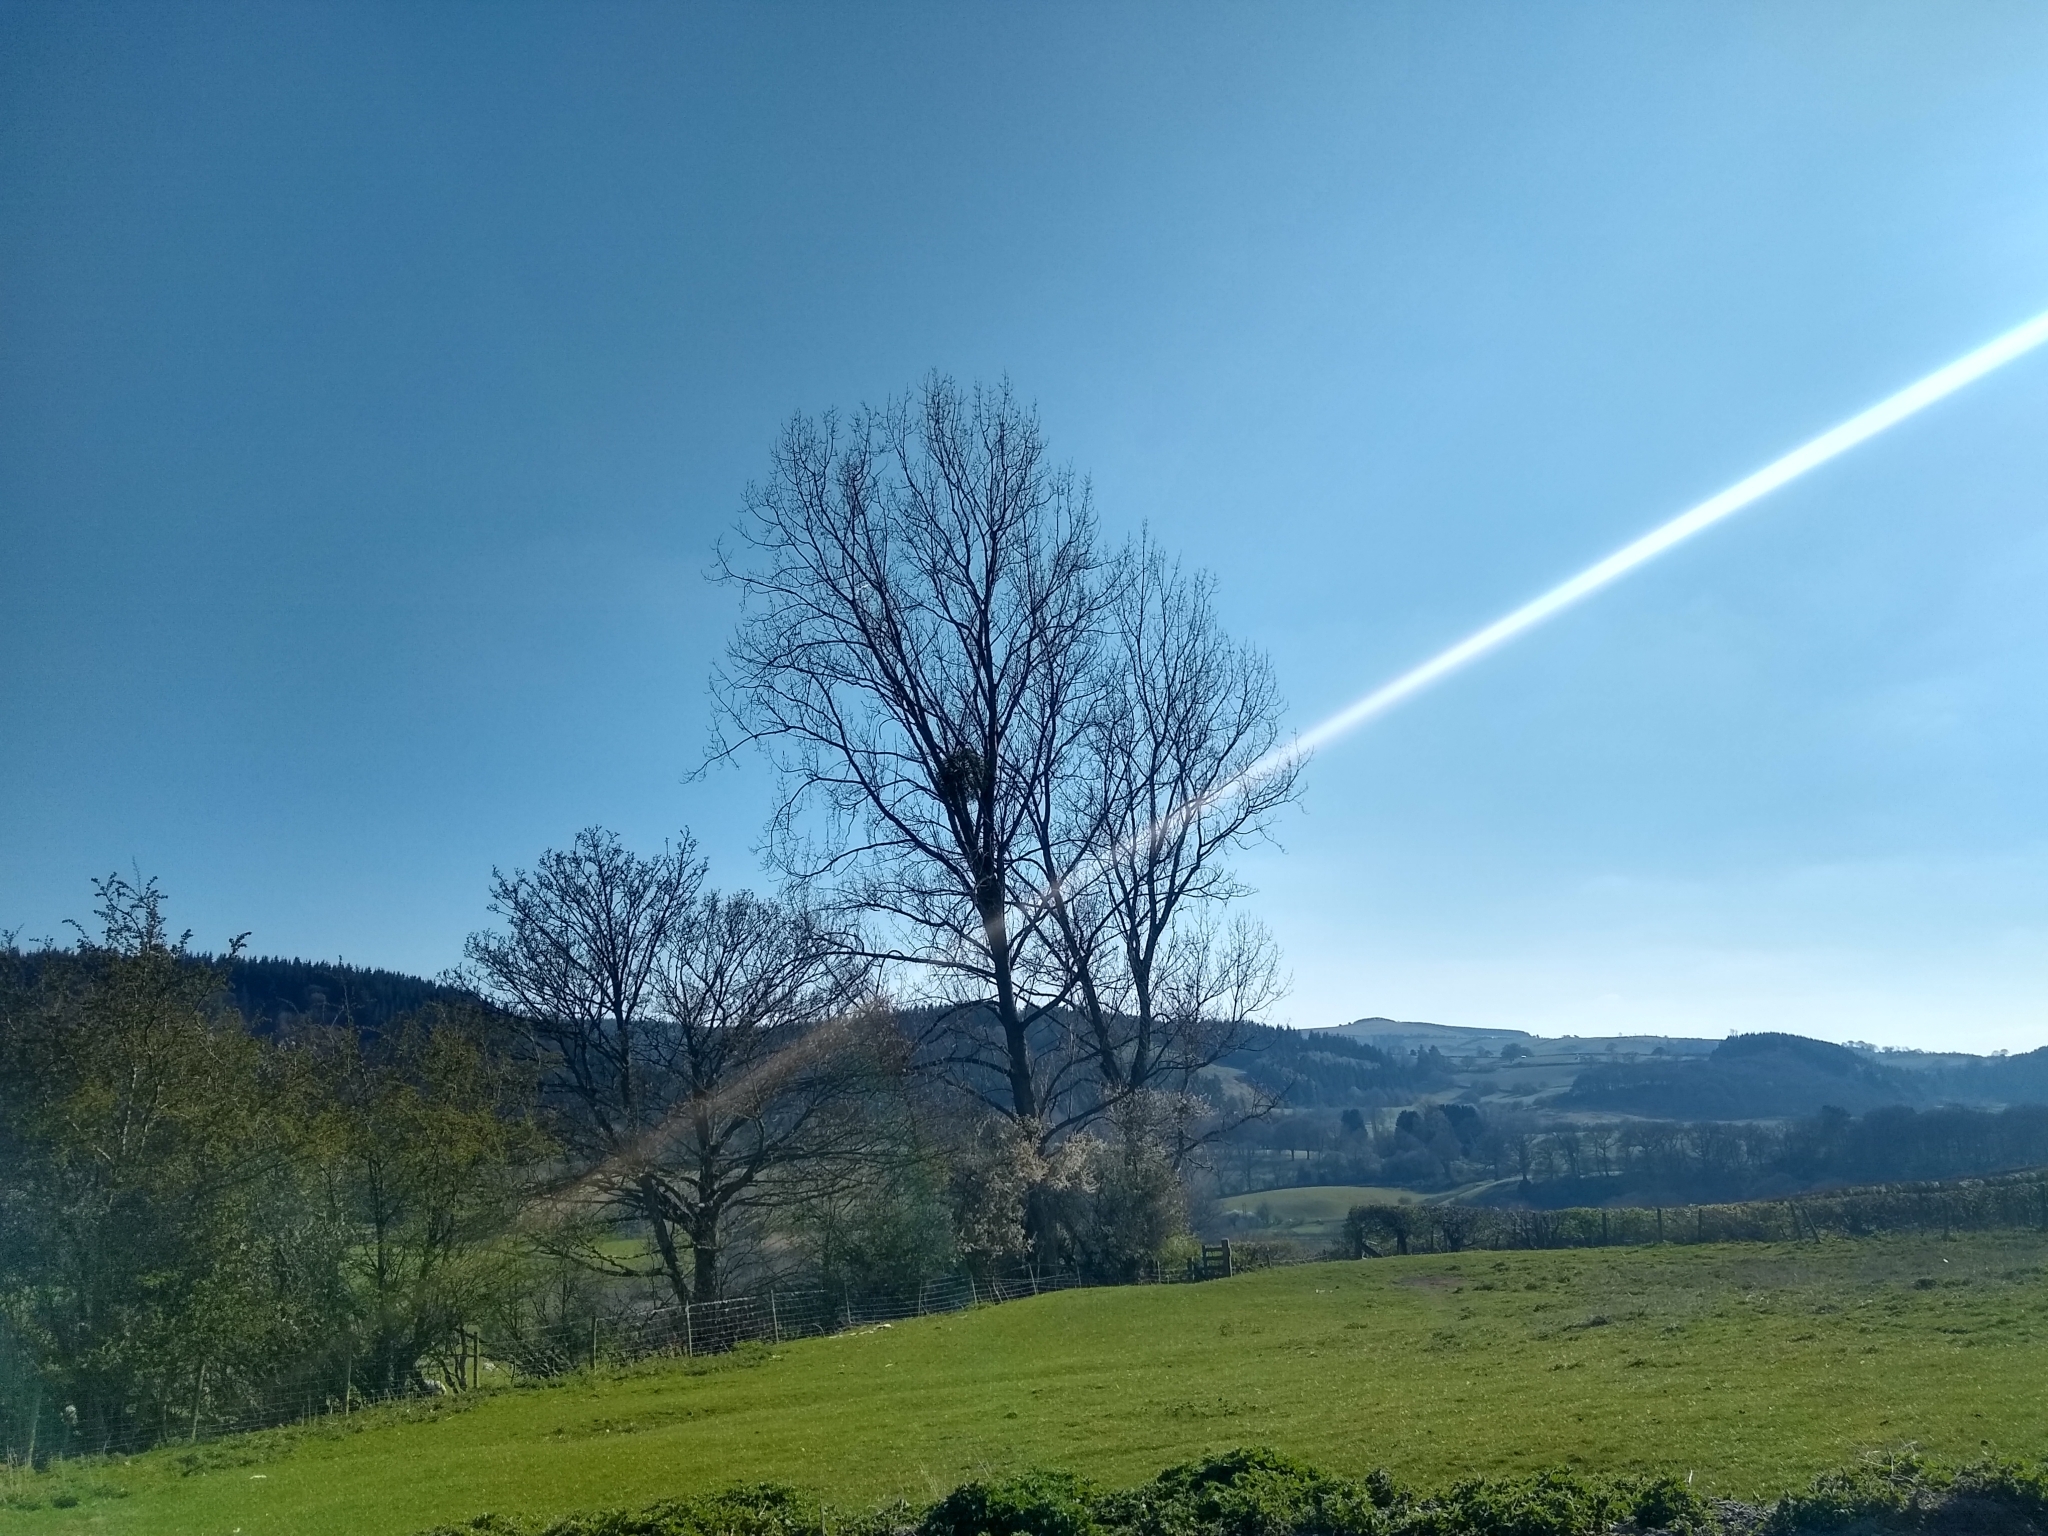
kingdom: Plantae
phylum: Tracheophyta
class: Magnoliopsida
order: Santalales
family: Viscaceae
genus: Viscum
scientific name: Viscum album
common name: Mistletoe
